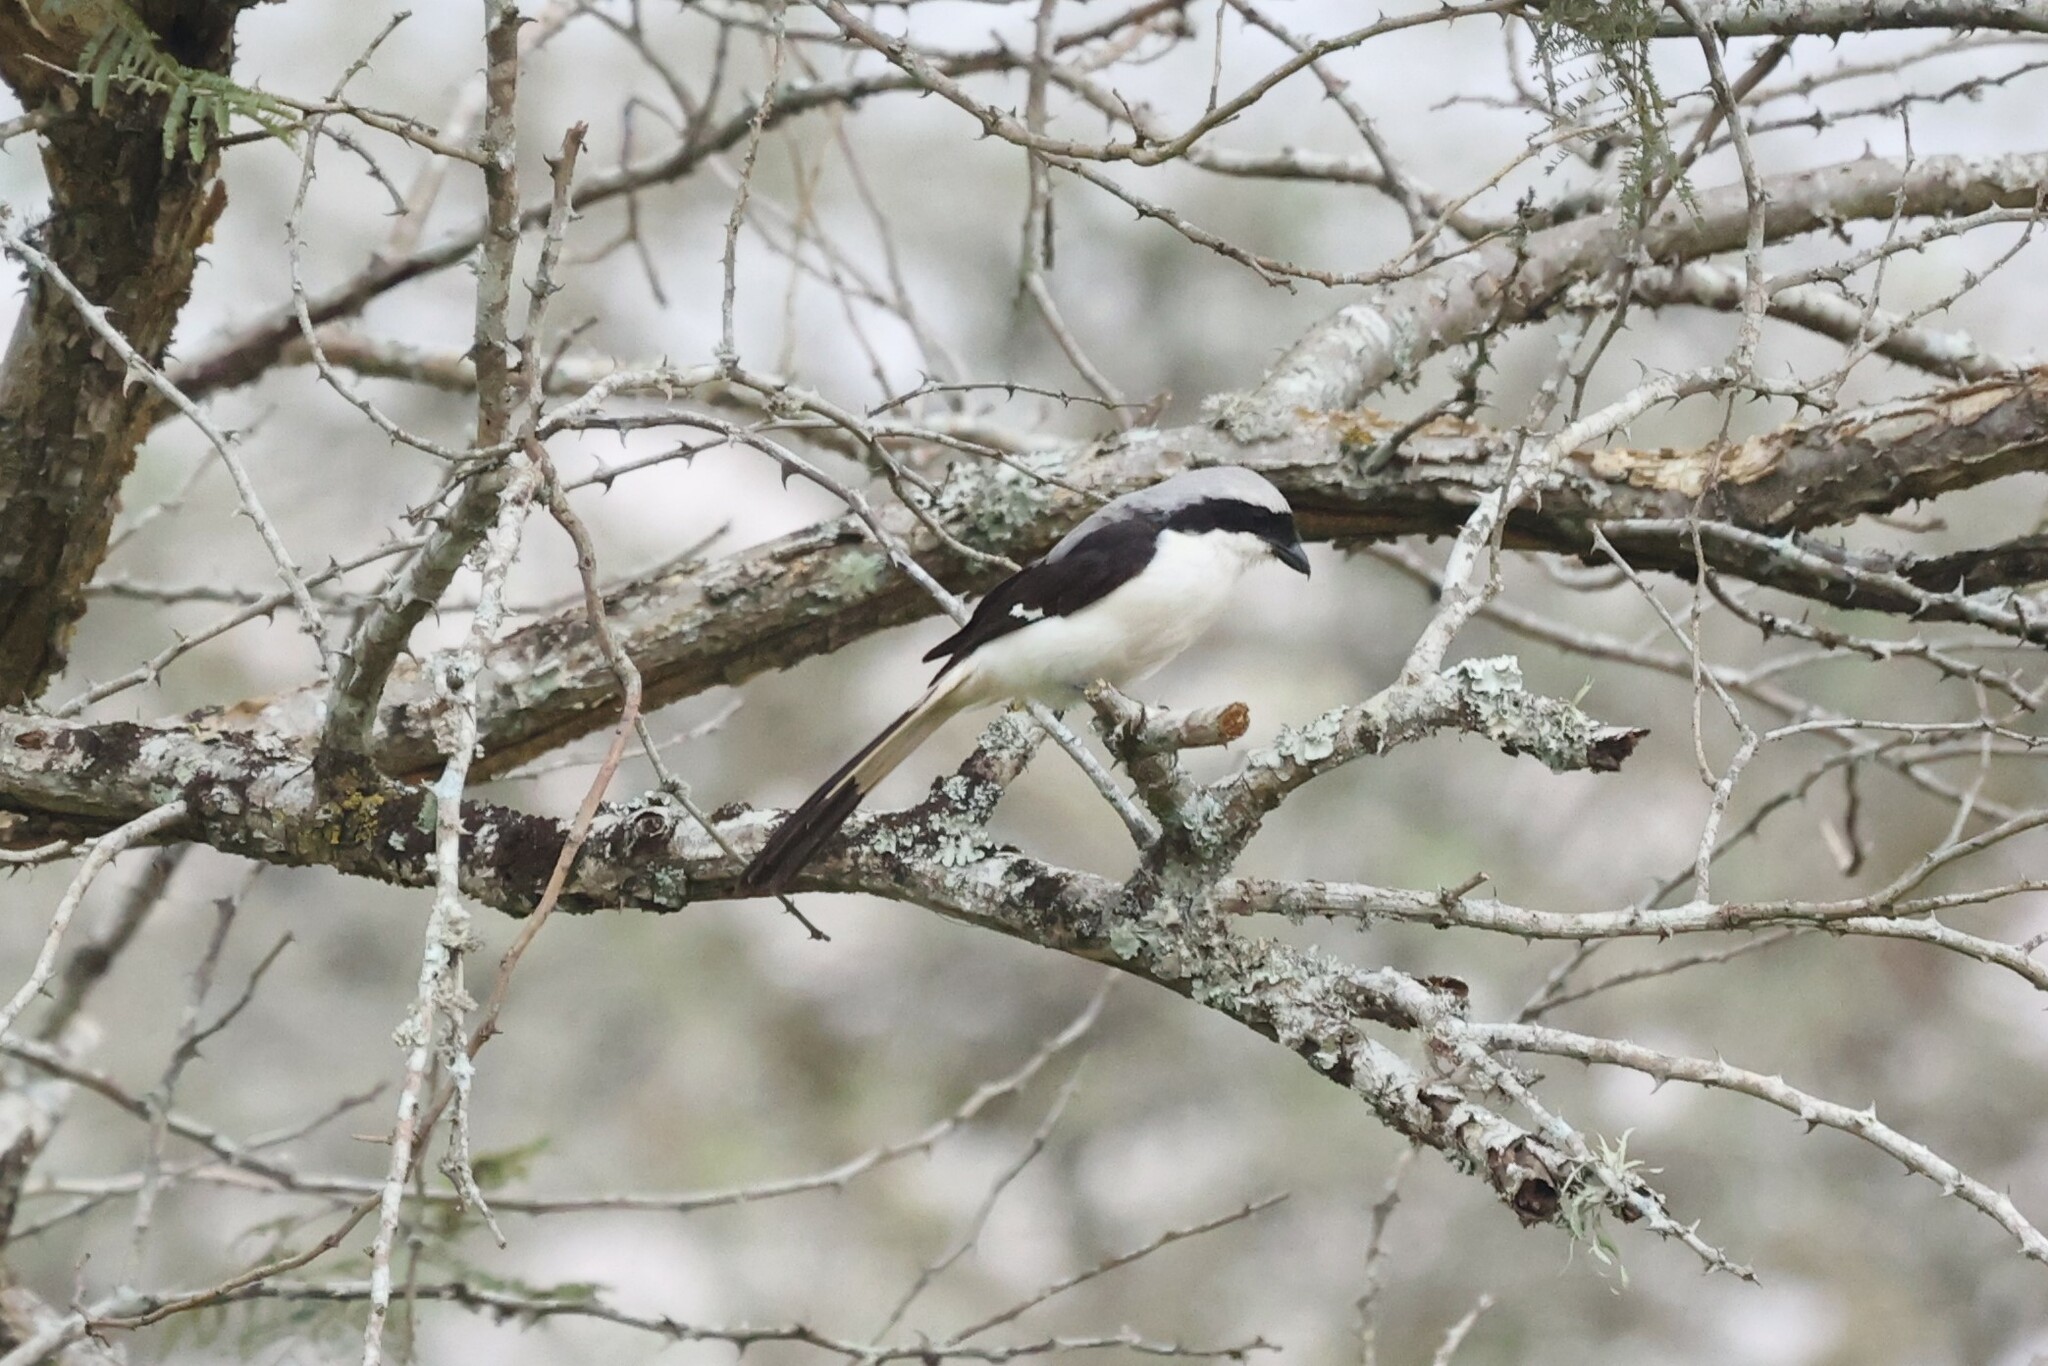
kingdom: Animalia
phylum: Chordata
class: Aves
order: Passeriformes
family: Laniidae
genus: Lanius
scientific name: Lanius excubitoroides
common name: Grey-backed fiscal
